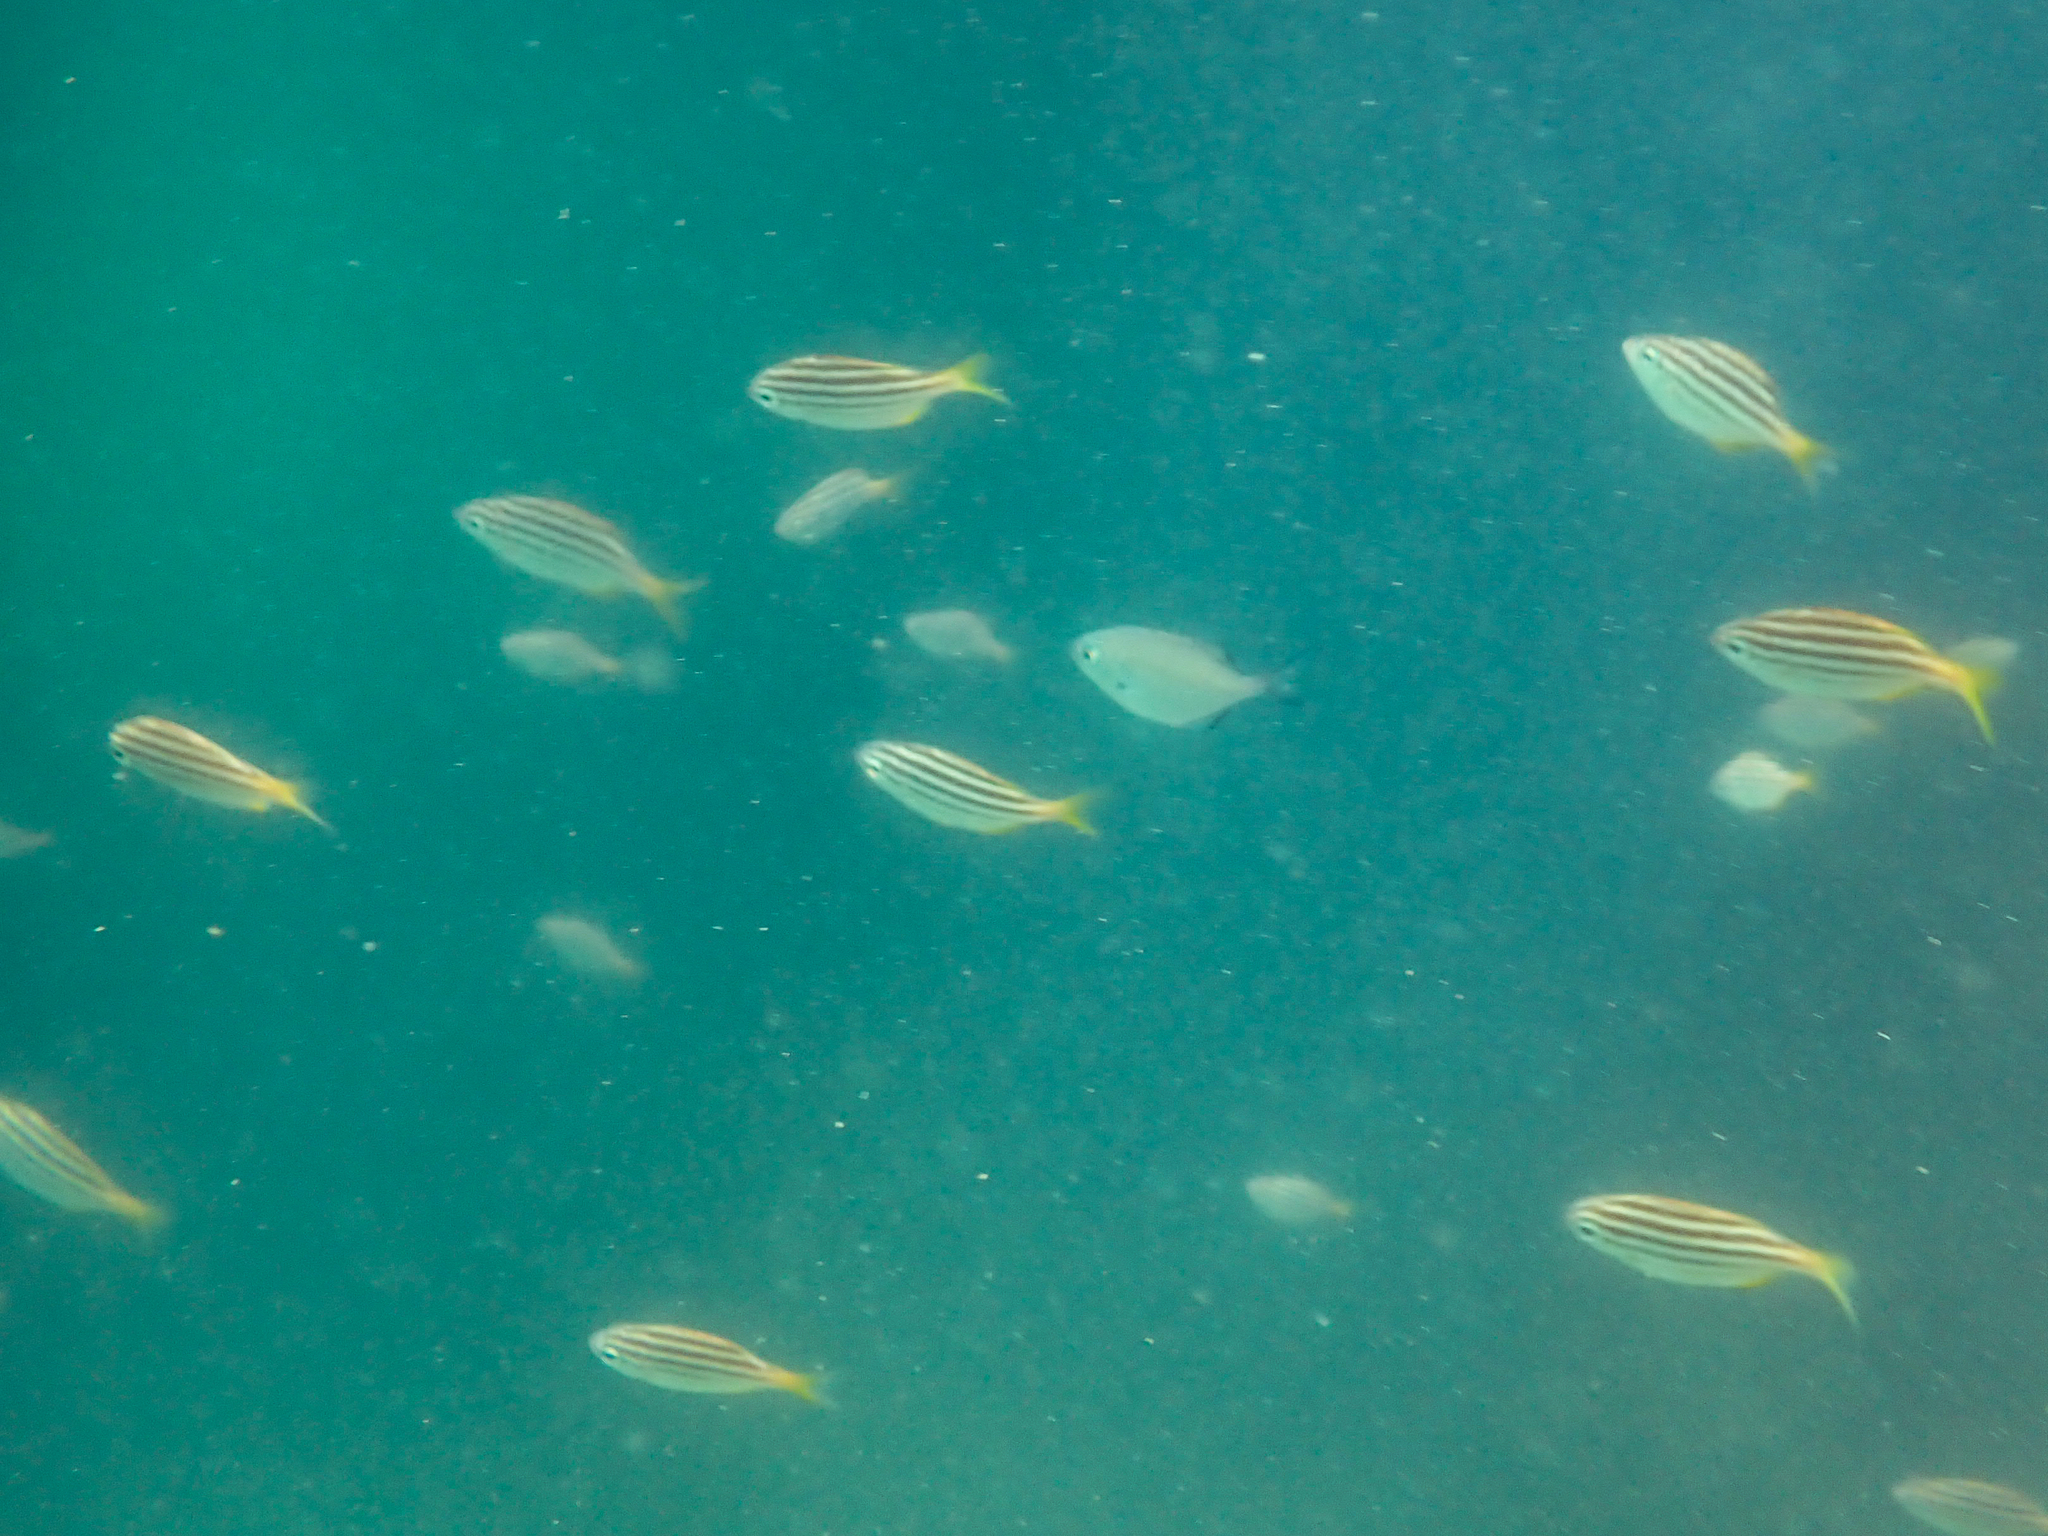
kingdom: Animalia
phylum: Chordata
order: Perciformes
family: Kyphosidae
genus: Atypichthys
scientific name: Atypichthys strigatus
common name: Australian mado
